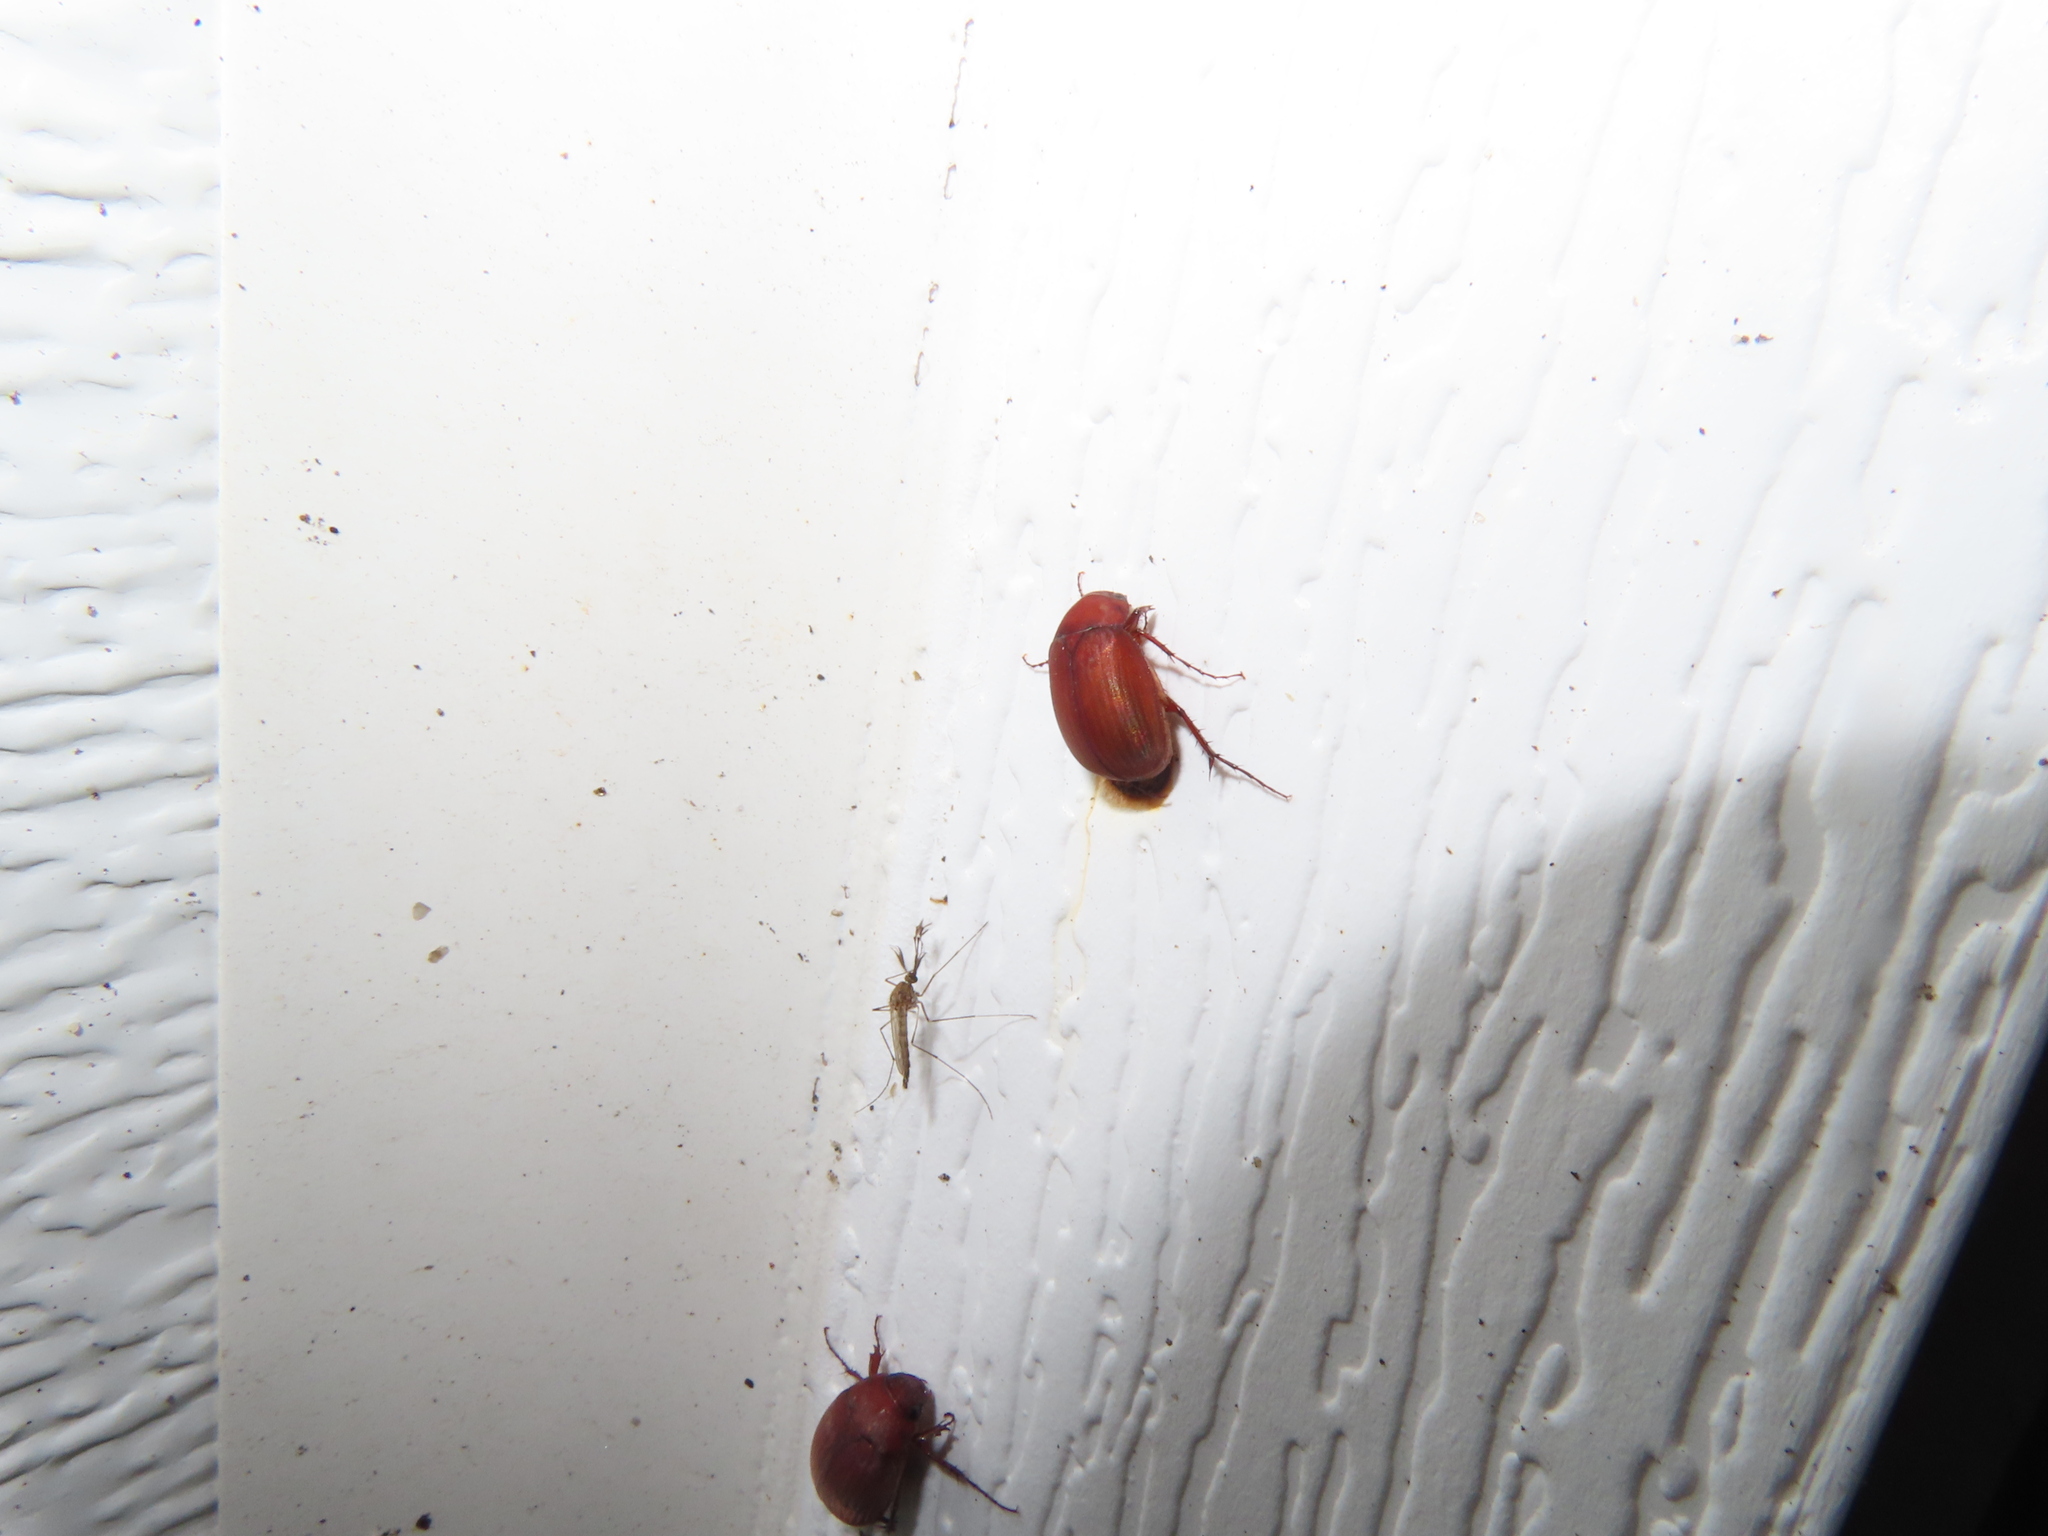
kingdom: Animalia
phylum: Arthropoda
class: Insecta
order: Coleoptera
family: Scarabaeidae
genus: Maladera
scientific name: Maladera formosae
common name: Asiatic garden beetle
